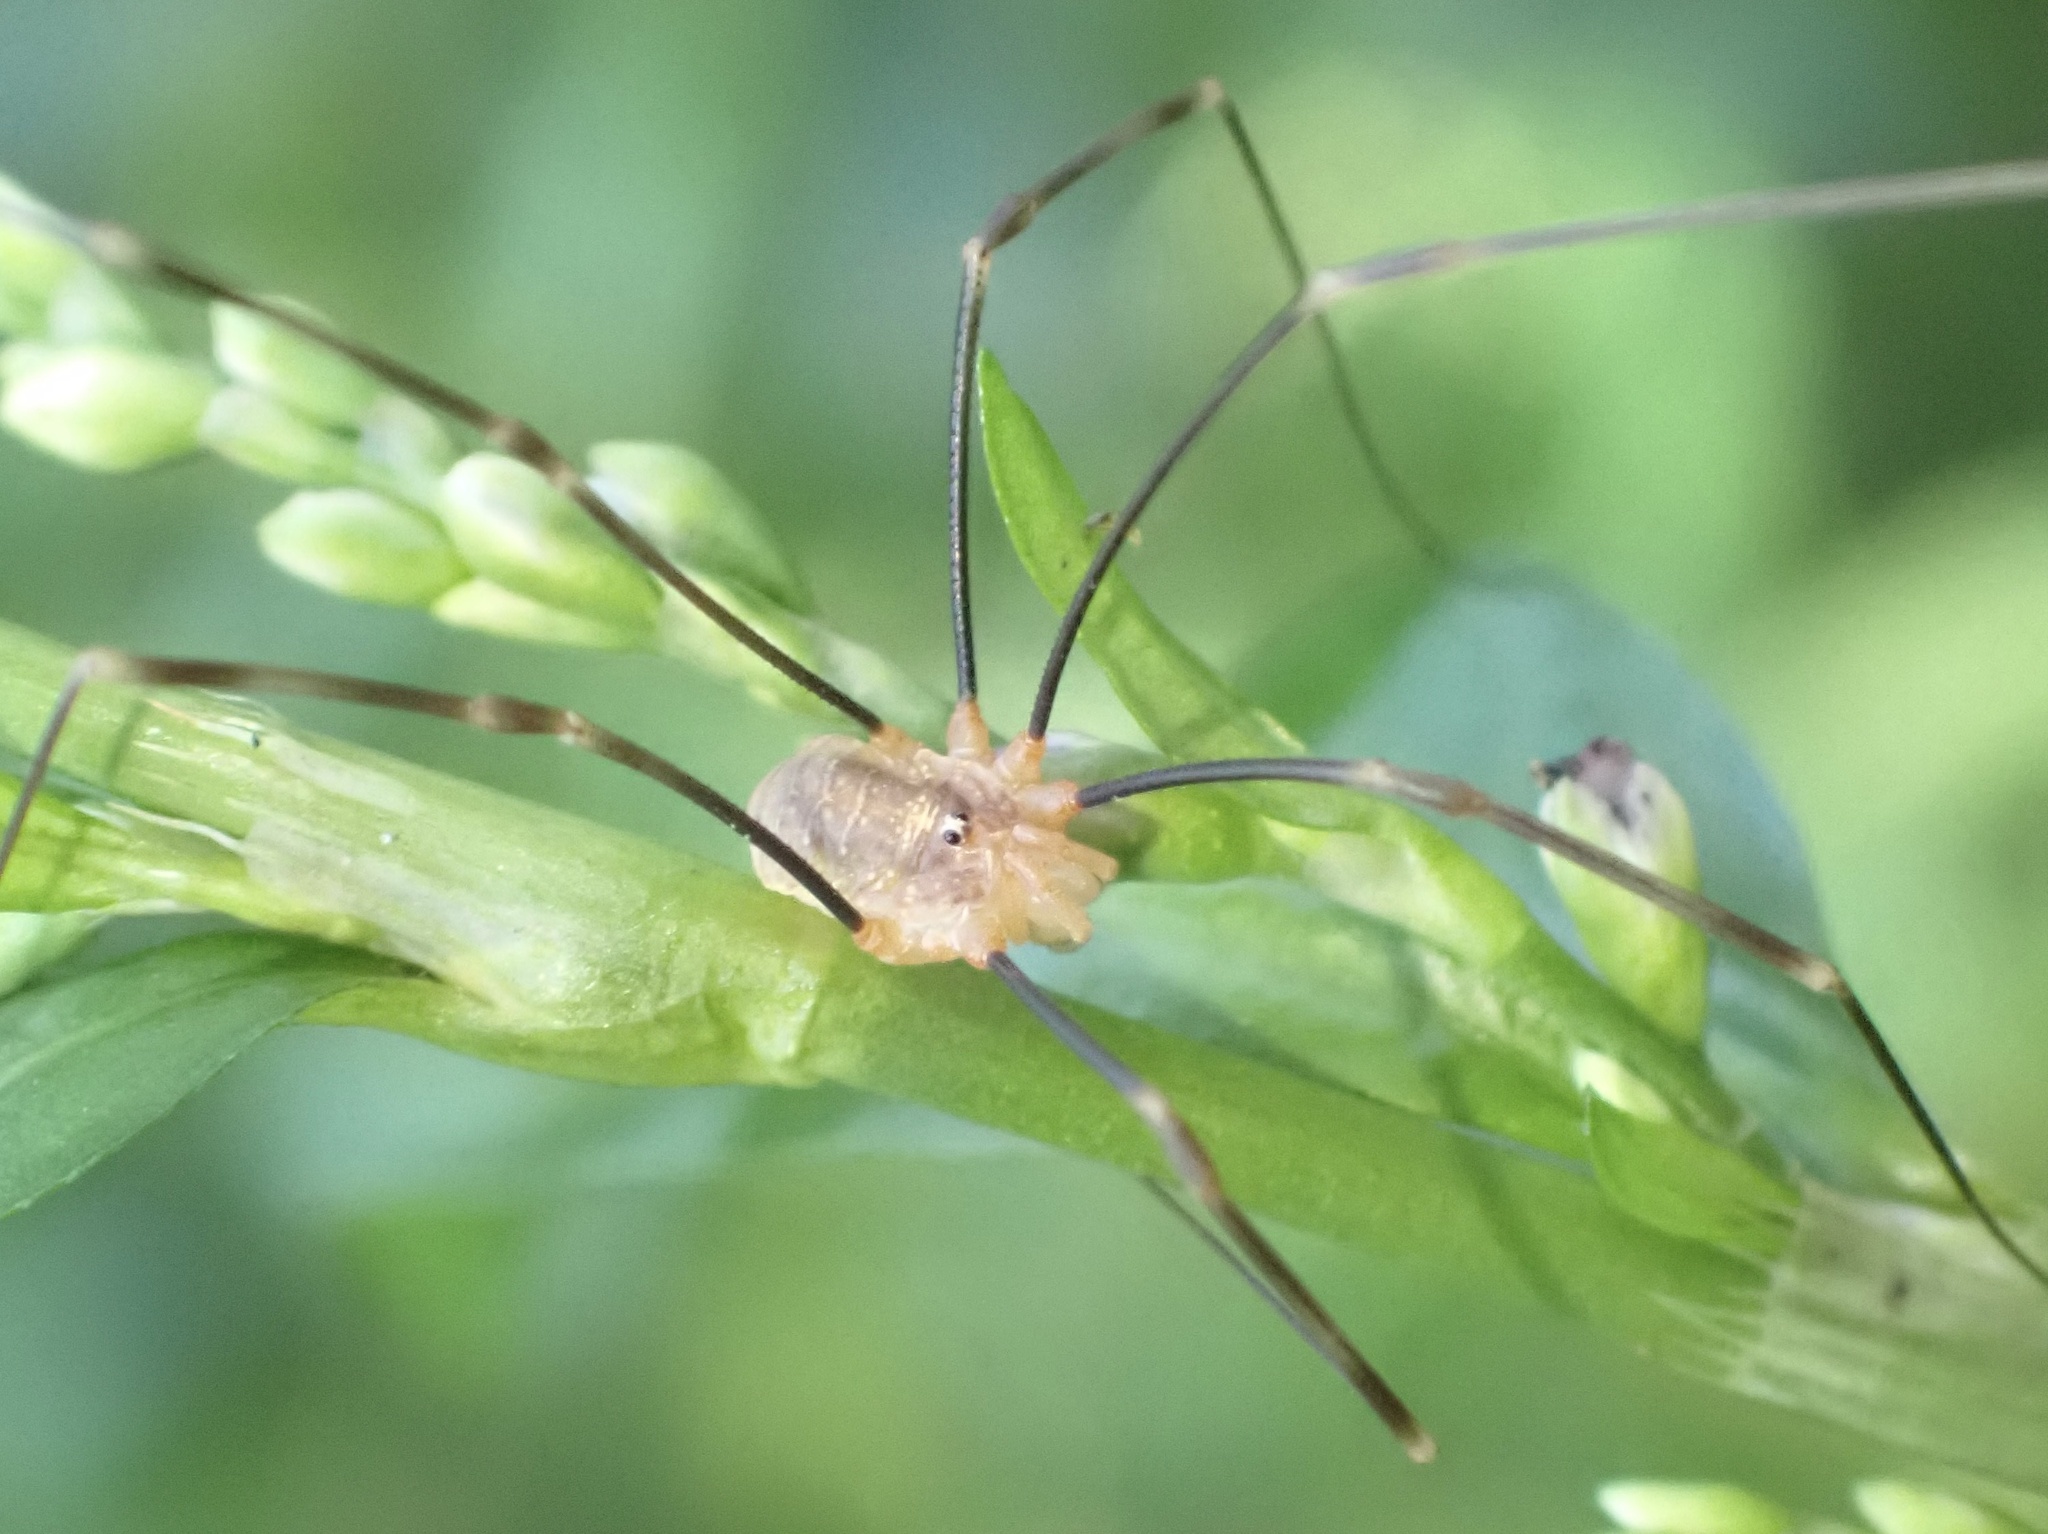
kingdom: Animalia
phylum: Arthropoda
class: Arachnida
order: Opiliones
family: Phalangiidae
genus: Opilio
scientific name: Opilio canestrinii
